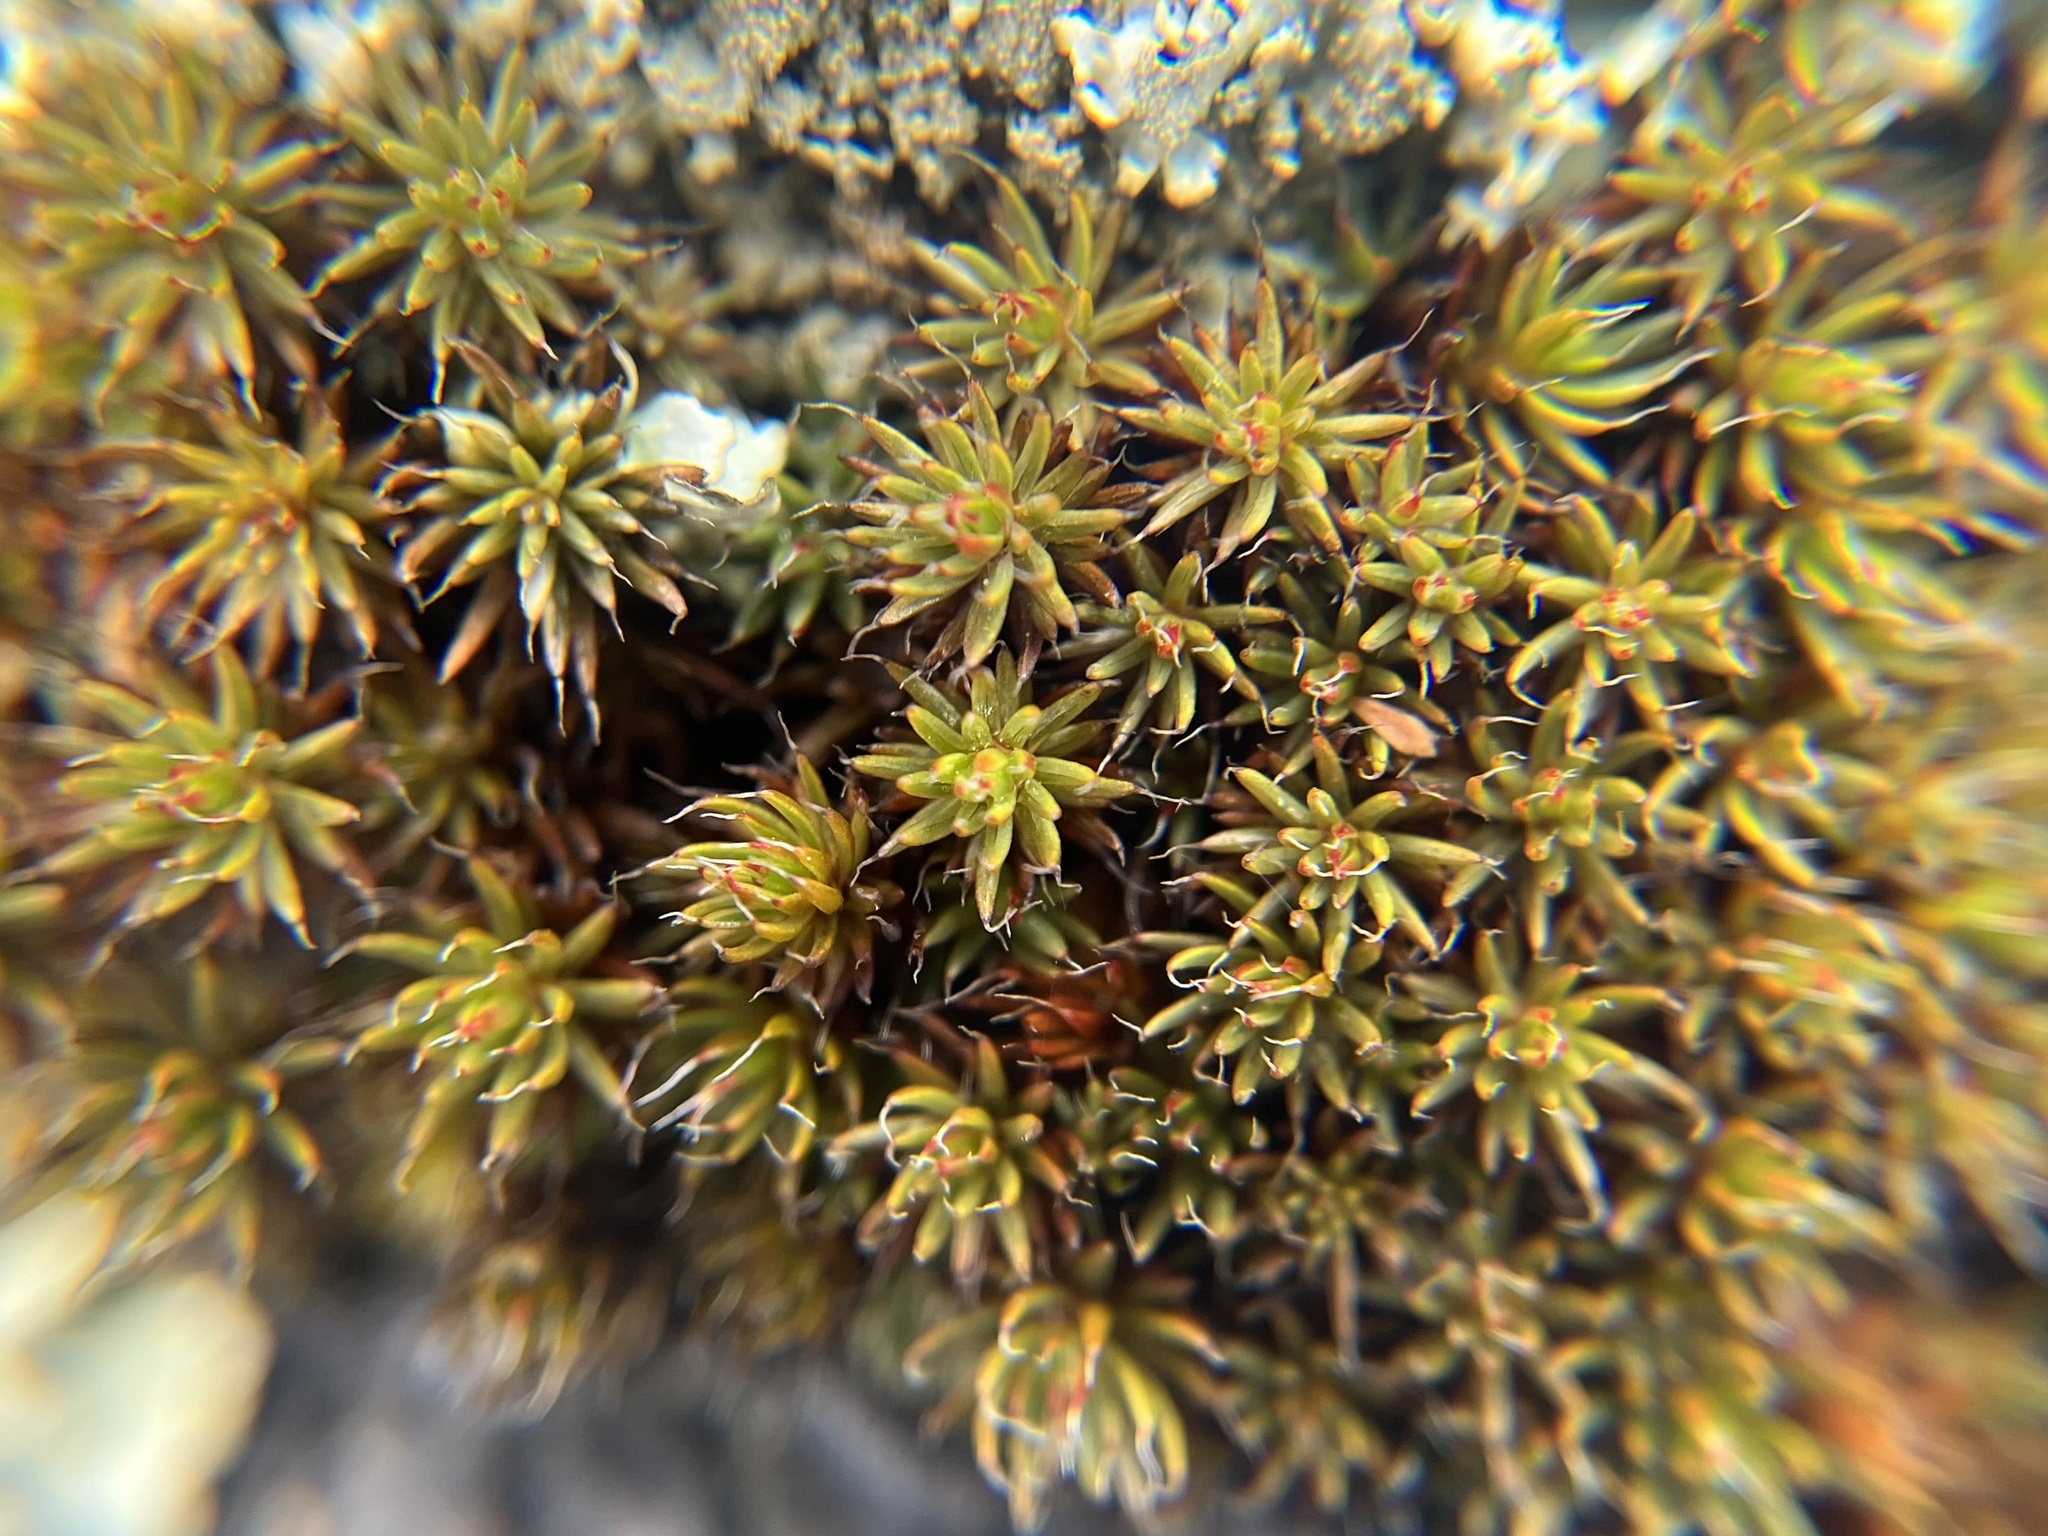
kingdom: Plantae
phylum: Bryophyta
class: Polytrichopsida
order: Polytrichales
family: Polytrichaceae
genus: Polytrichum
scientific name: Polytrichum piliferum
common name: Bristly haircap
